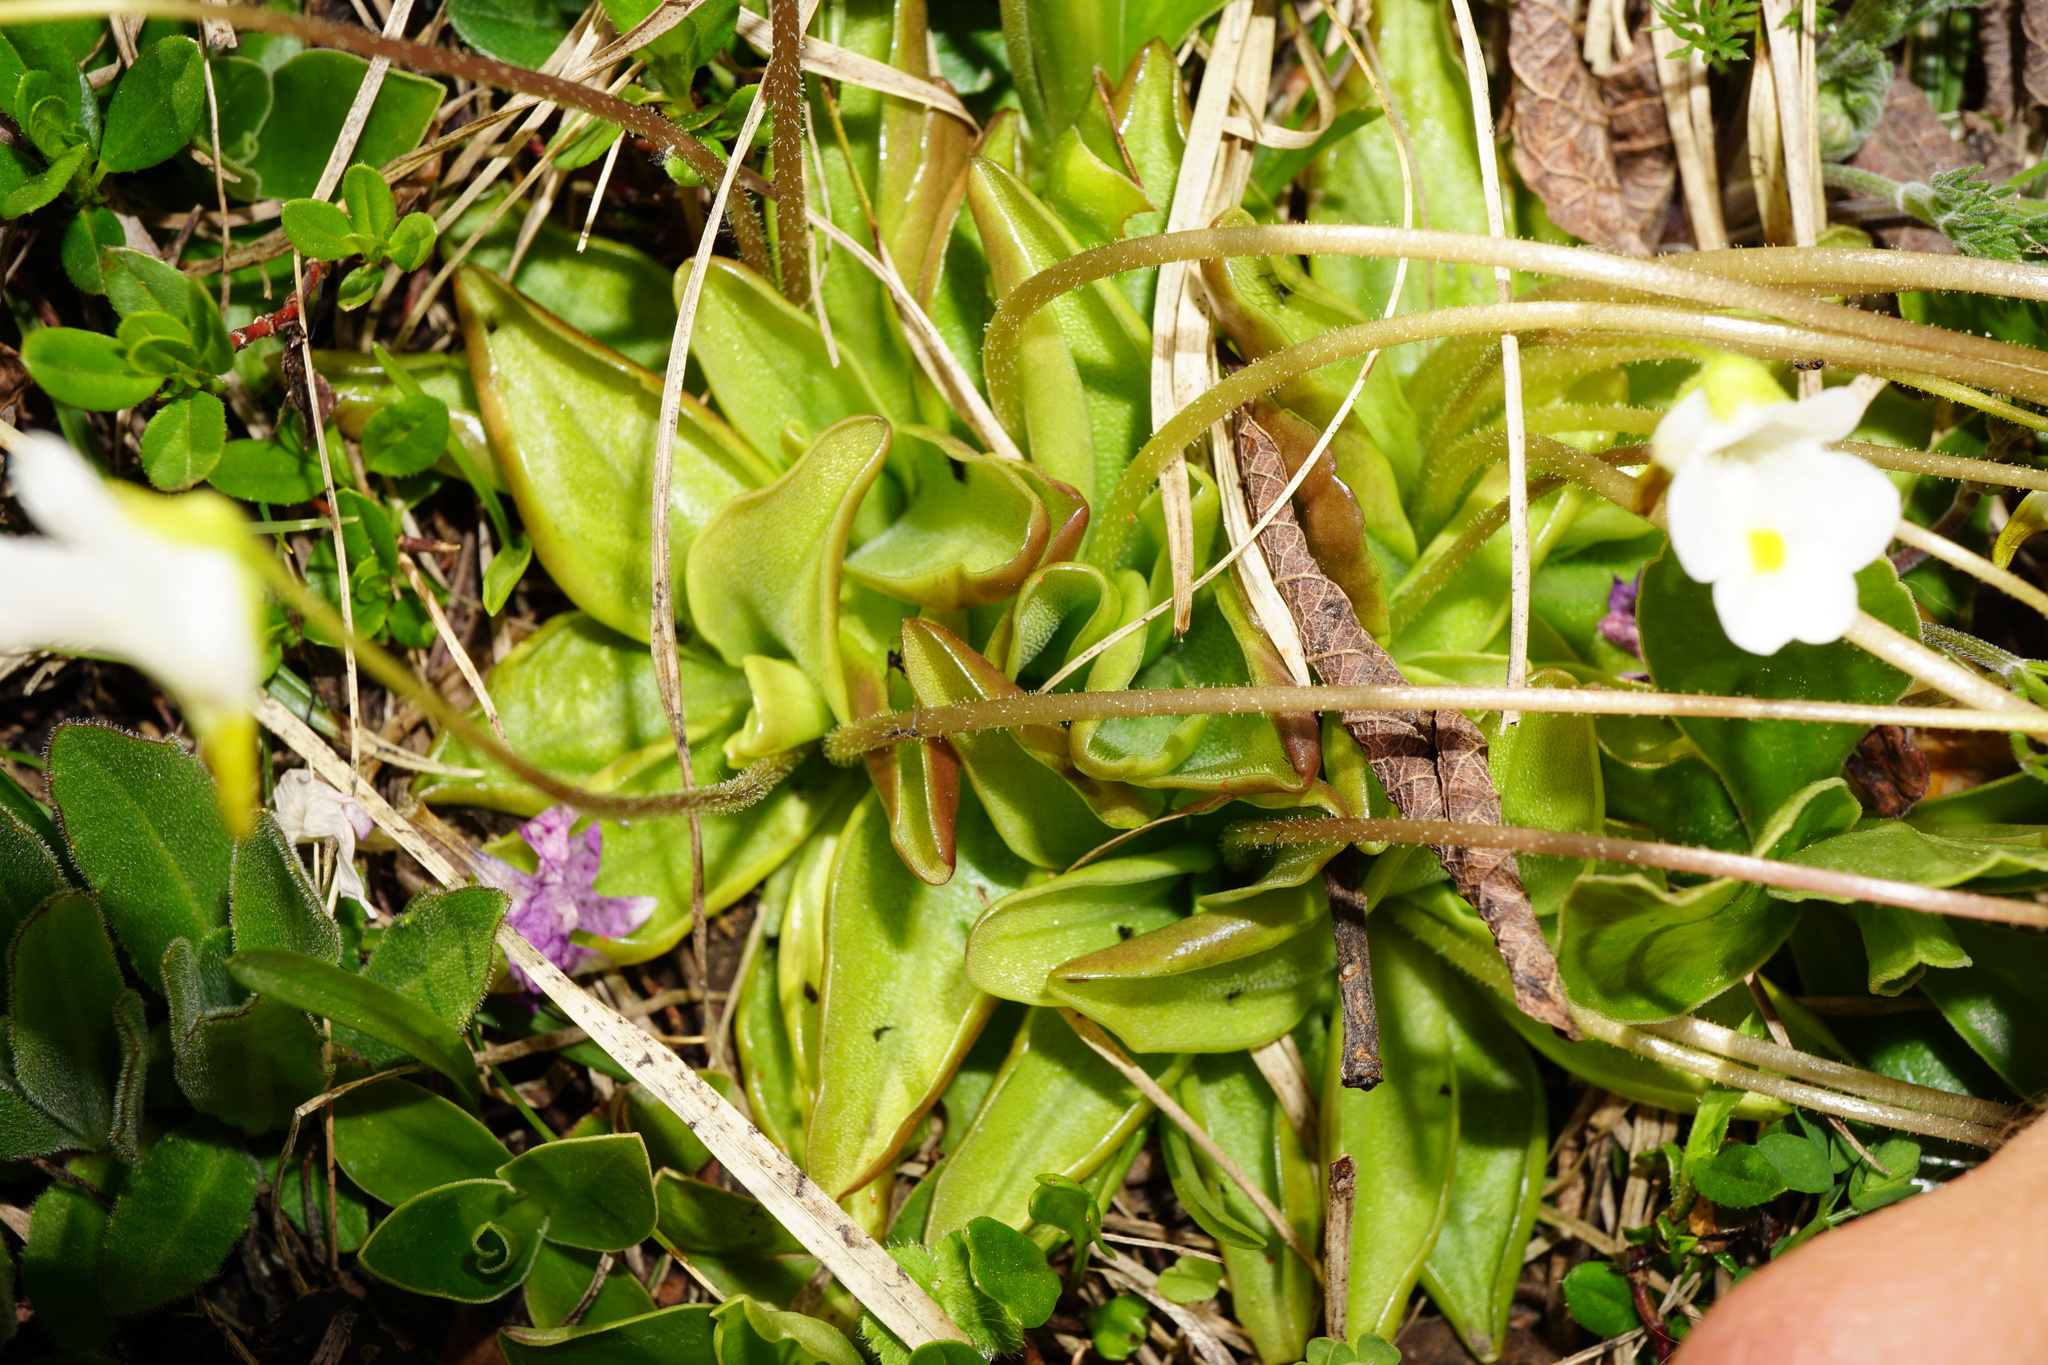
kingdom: Plantae
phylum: Tracheophyta
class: Magnoliopsida
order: Lamiales
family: Lentibulariaceae
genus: Pinguicula
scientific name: Pinguicula alpina
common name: Alpine butterwort
